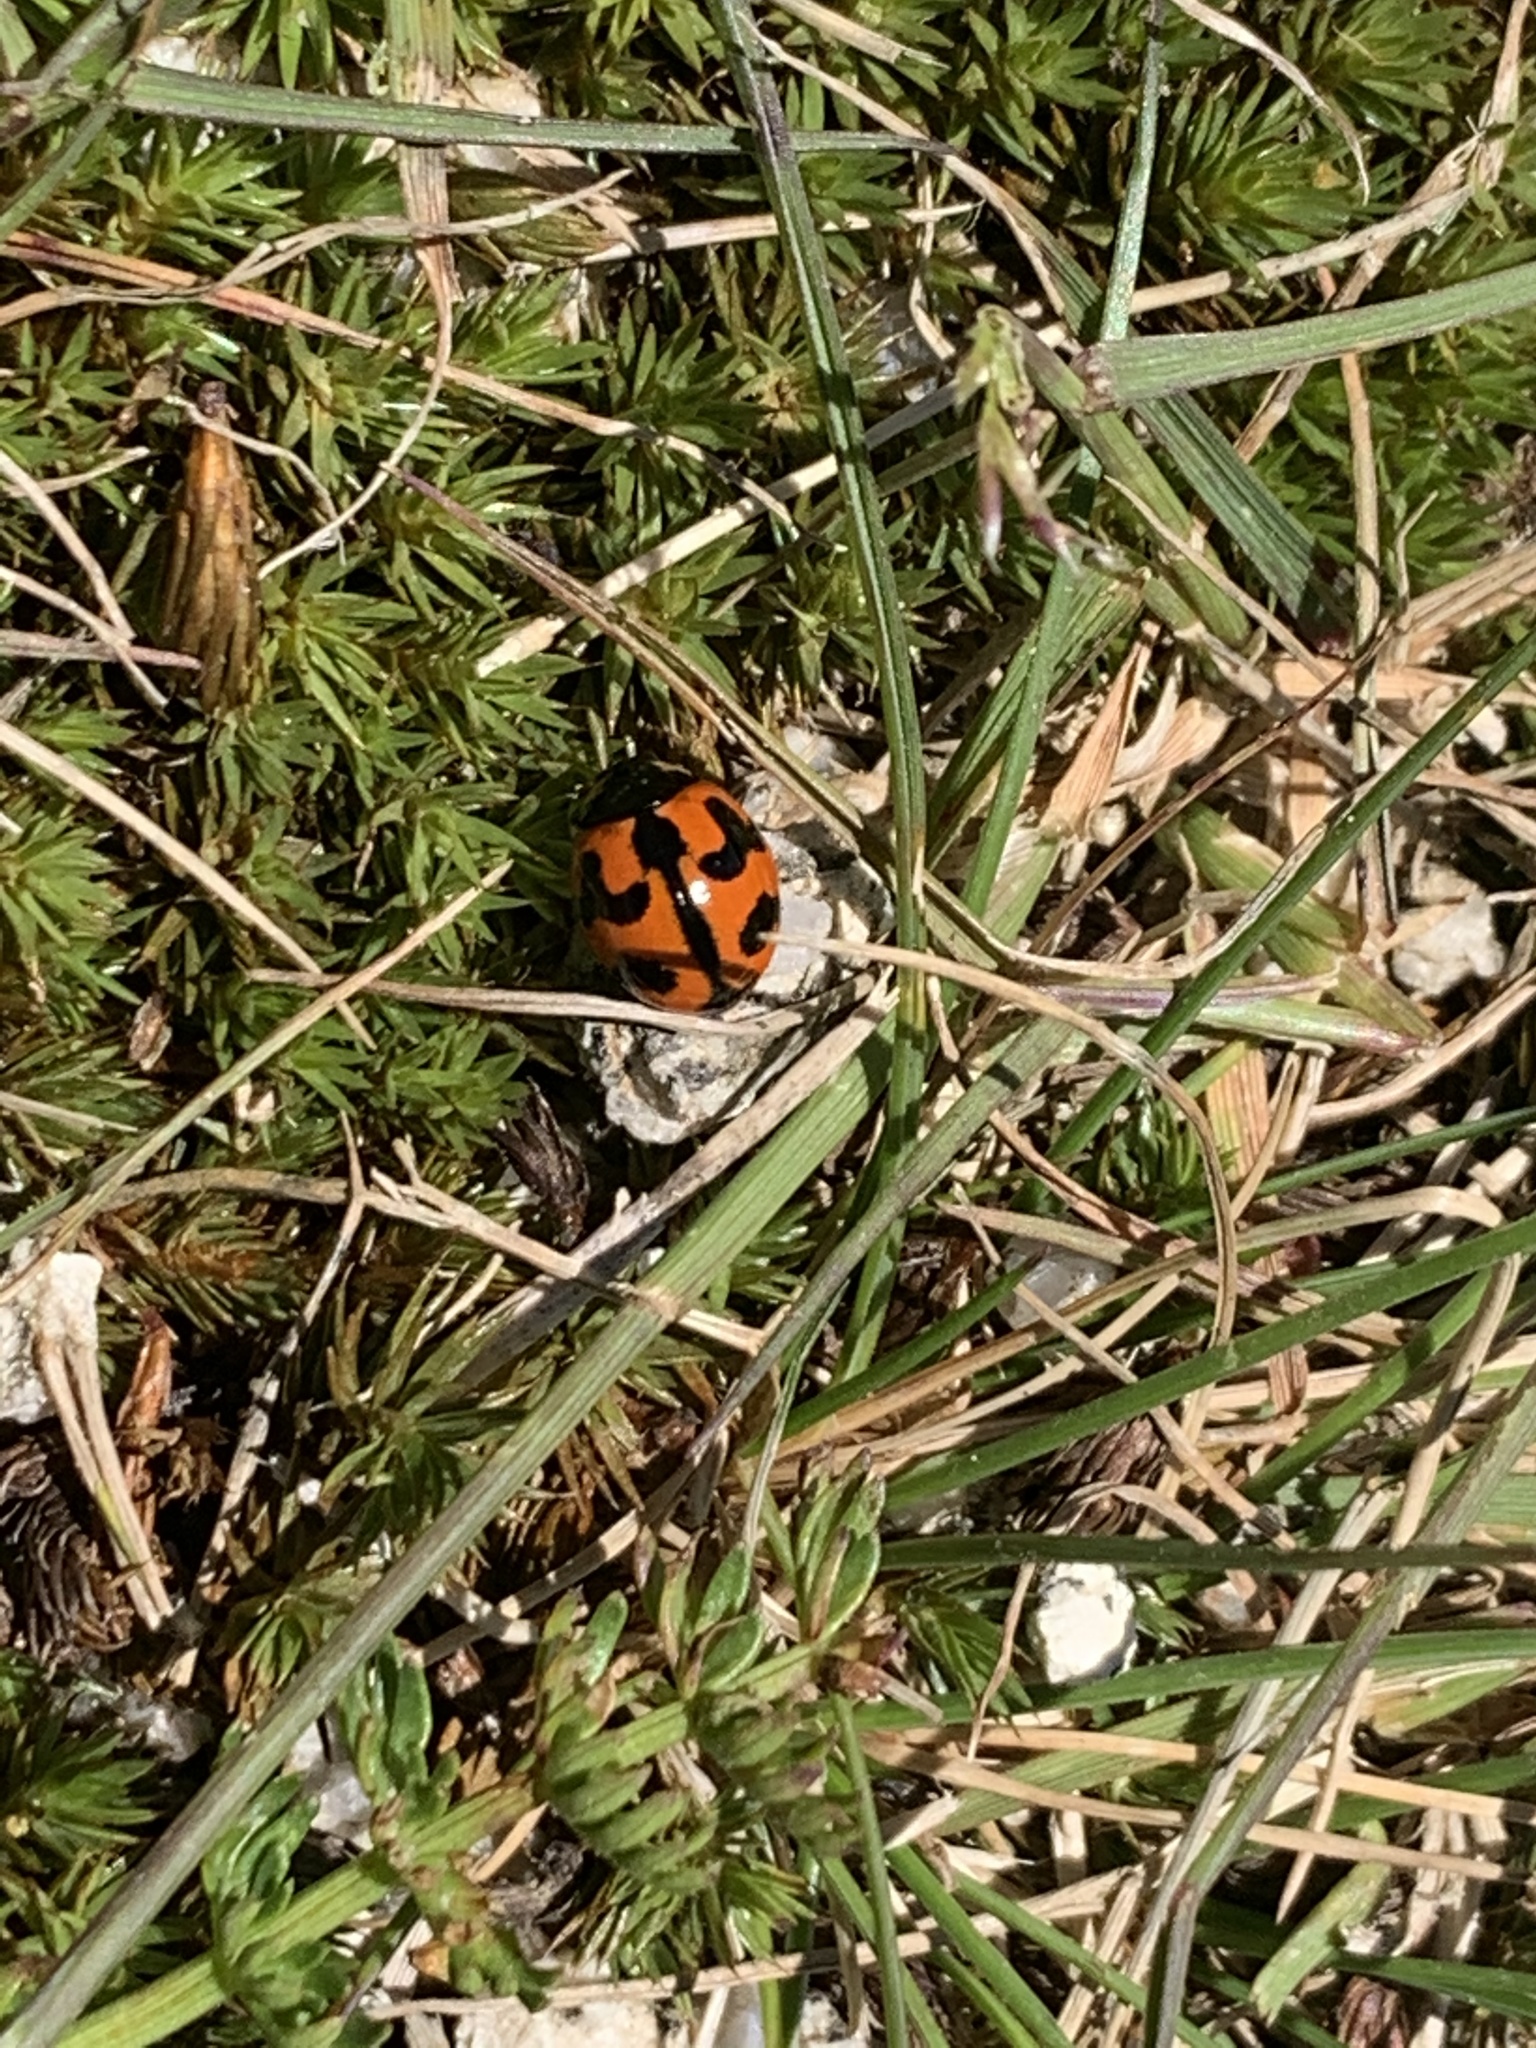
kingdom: Animalia
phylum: Arthropoda
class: Insecta
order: Coleoptera
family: Coccinellidae
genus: Coccinella
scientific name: Coccinella transversalis
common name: Transverse lady beetle
